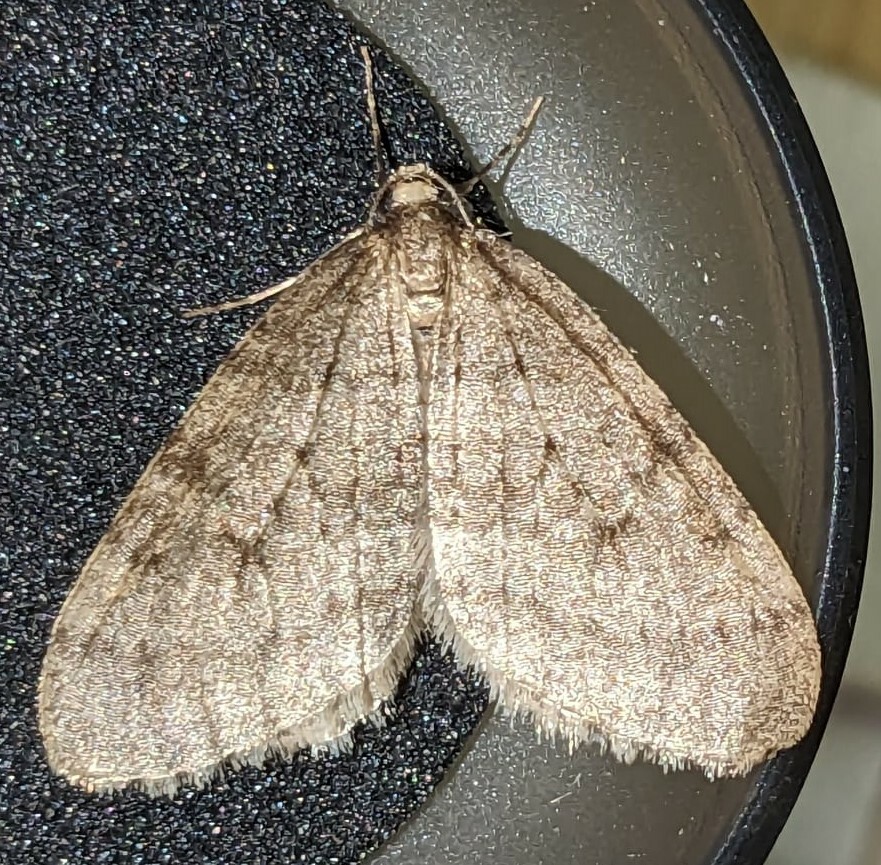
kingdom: Animalia
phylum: Arthropoda
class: Insecta
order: Lepidoptera
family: Geometridae
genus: Operophtera
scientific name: Operophtera brumata
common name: Winter moth
